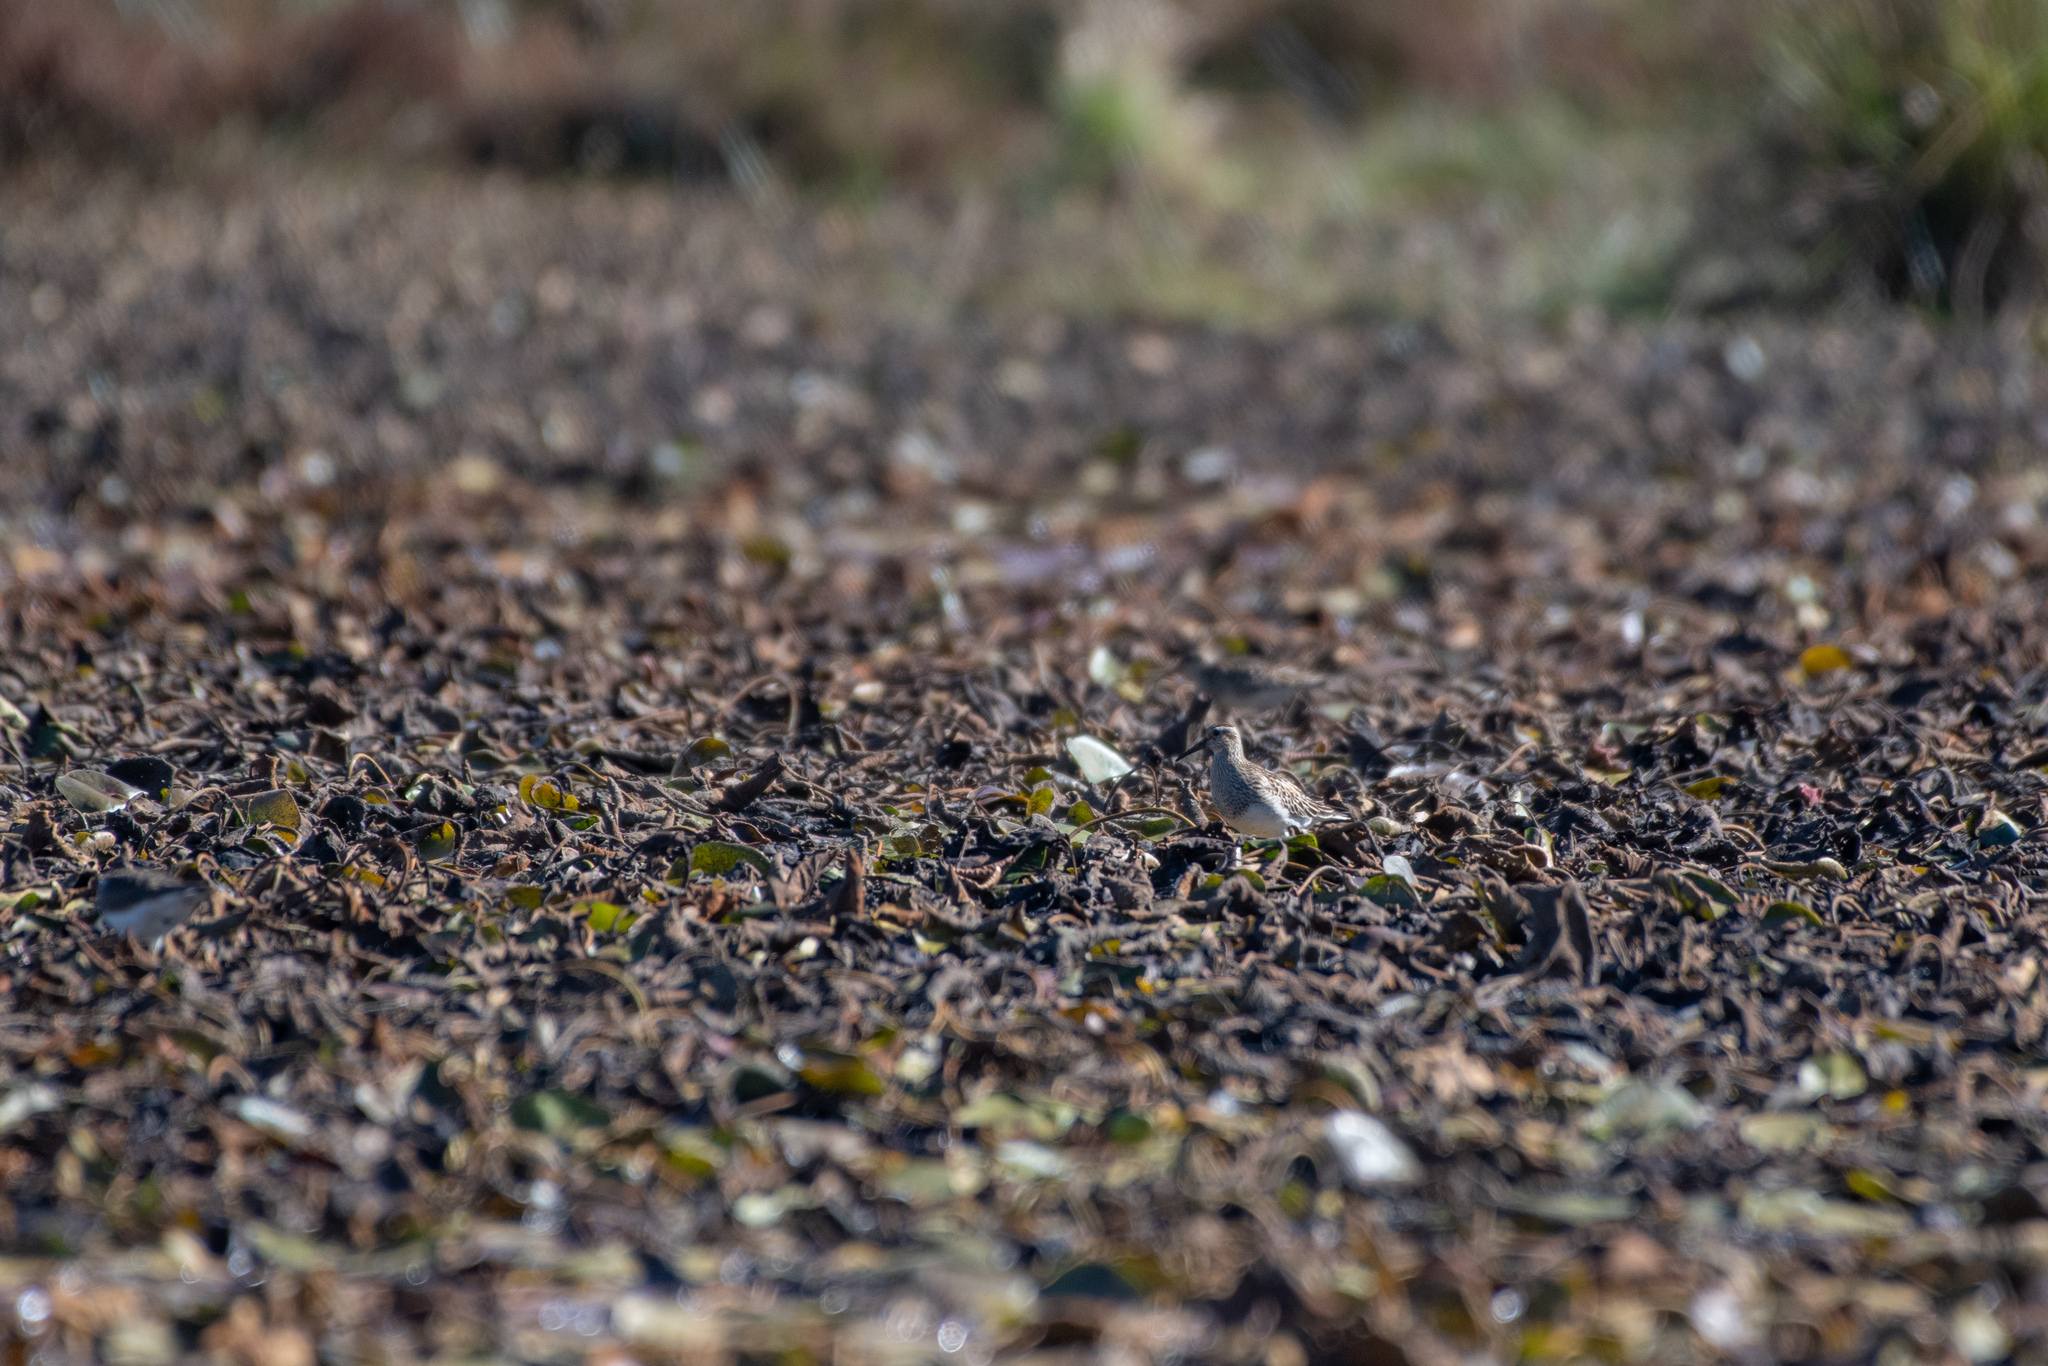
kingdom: Animalia
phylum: Chordata
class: Aves
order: Charadriiformes
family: Scolopacidae
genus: Calidris
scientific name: Calidris melanotos
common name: Pectoral sandpiper
